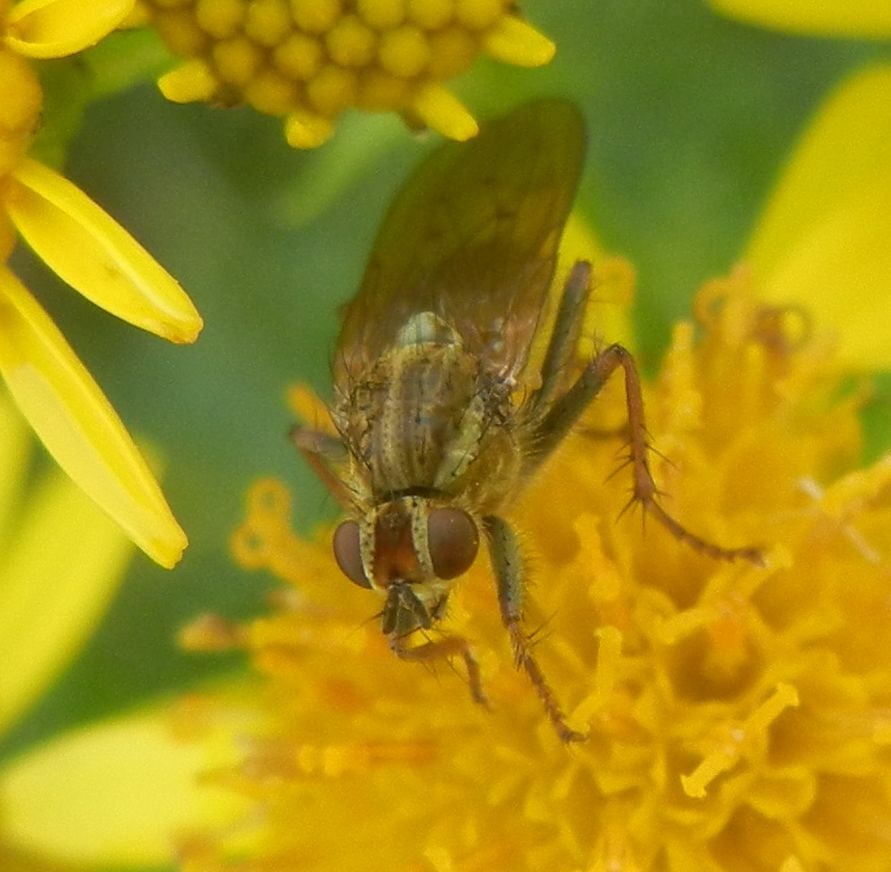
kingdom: Animalia
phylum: Arthropoda
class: Insecta
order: Diptera
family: Scathophagidae
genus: Scathophaga
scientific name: Scathophaga stercoraria
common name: Yellow dung fly
